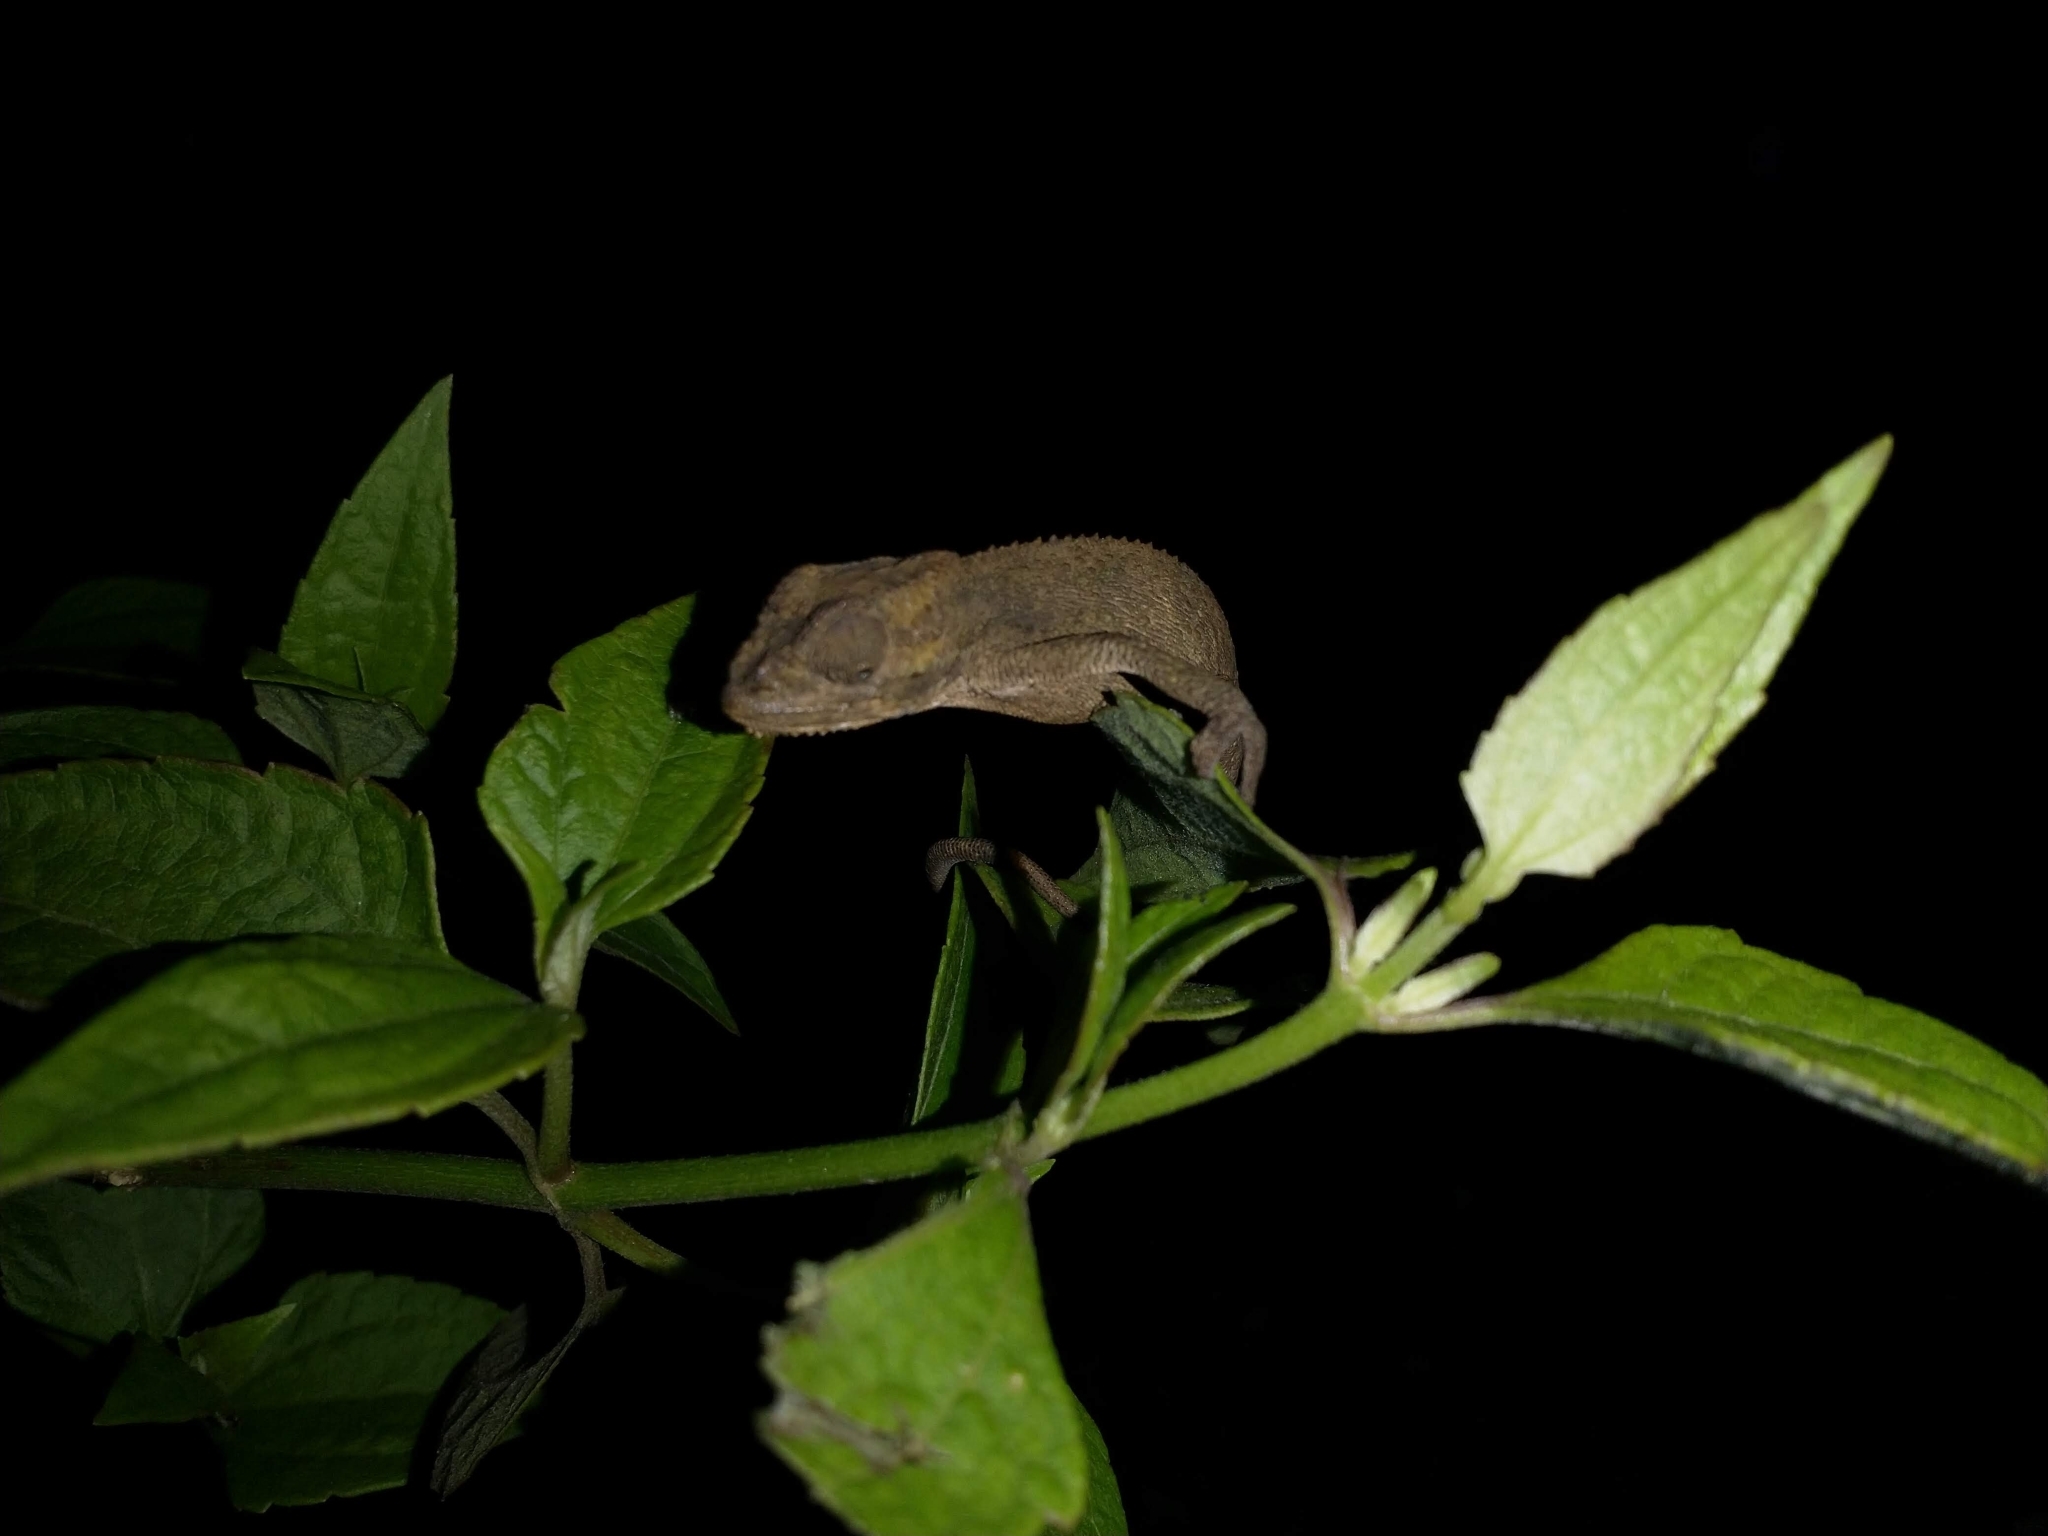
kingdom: Animalia
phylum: Chordata
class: Squamata
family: Chamaeleonidae
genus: Bradypodion
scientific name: Bradypodion melanocephalum
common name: Black-headed dwarf chameleon
